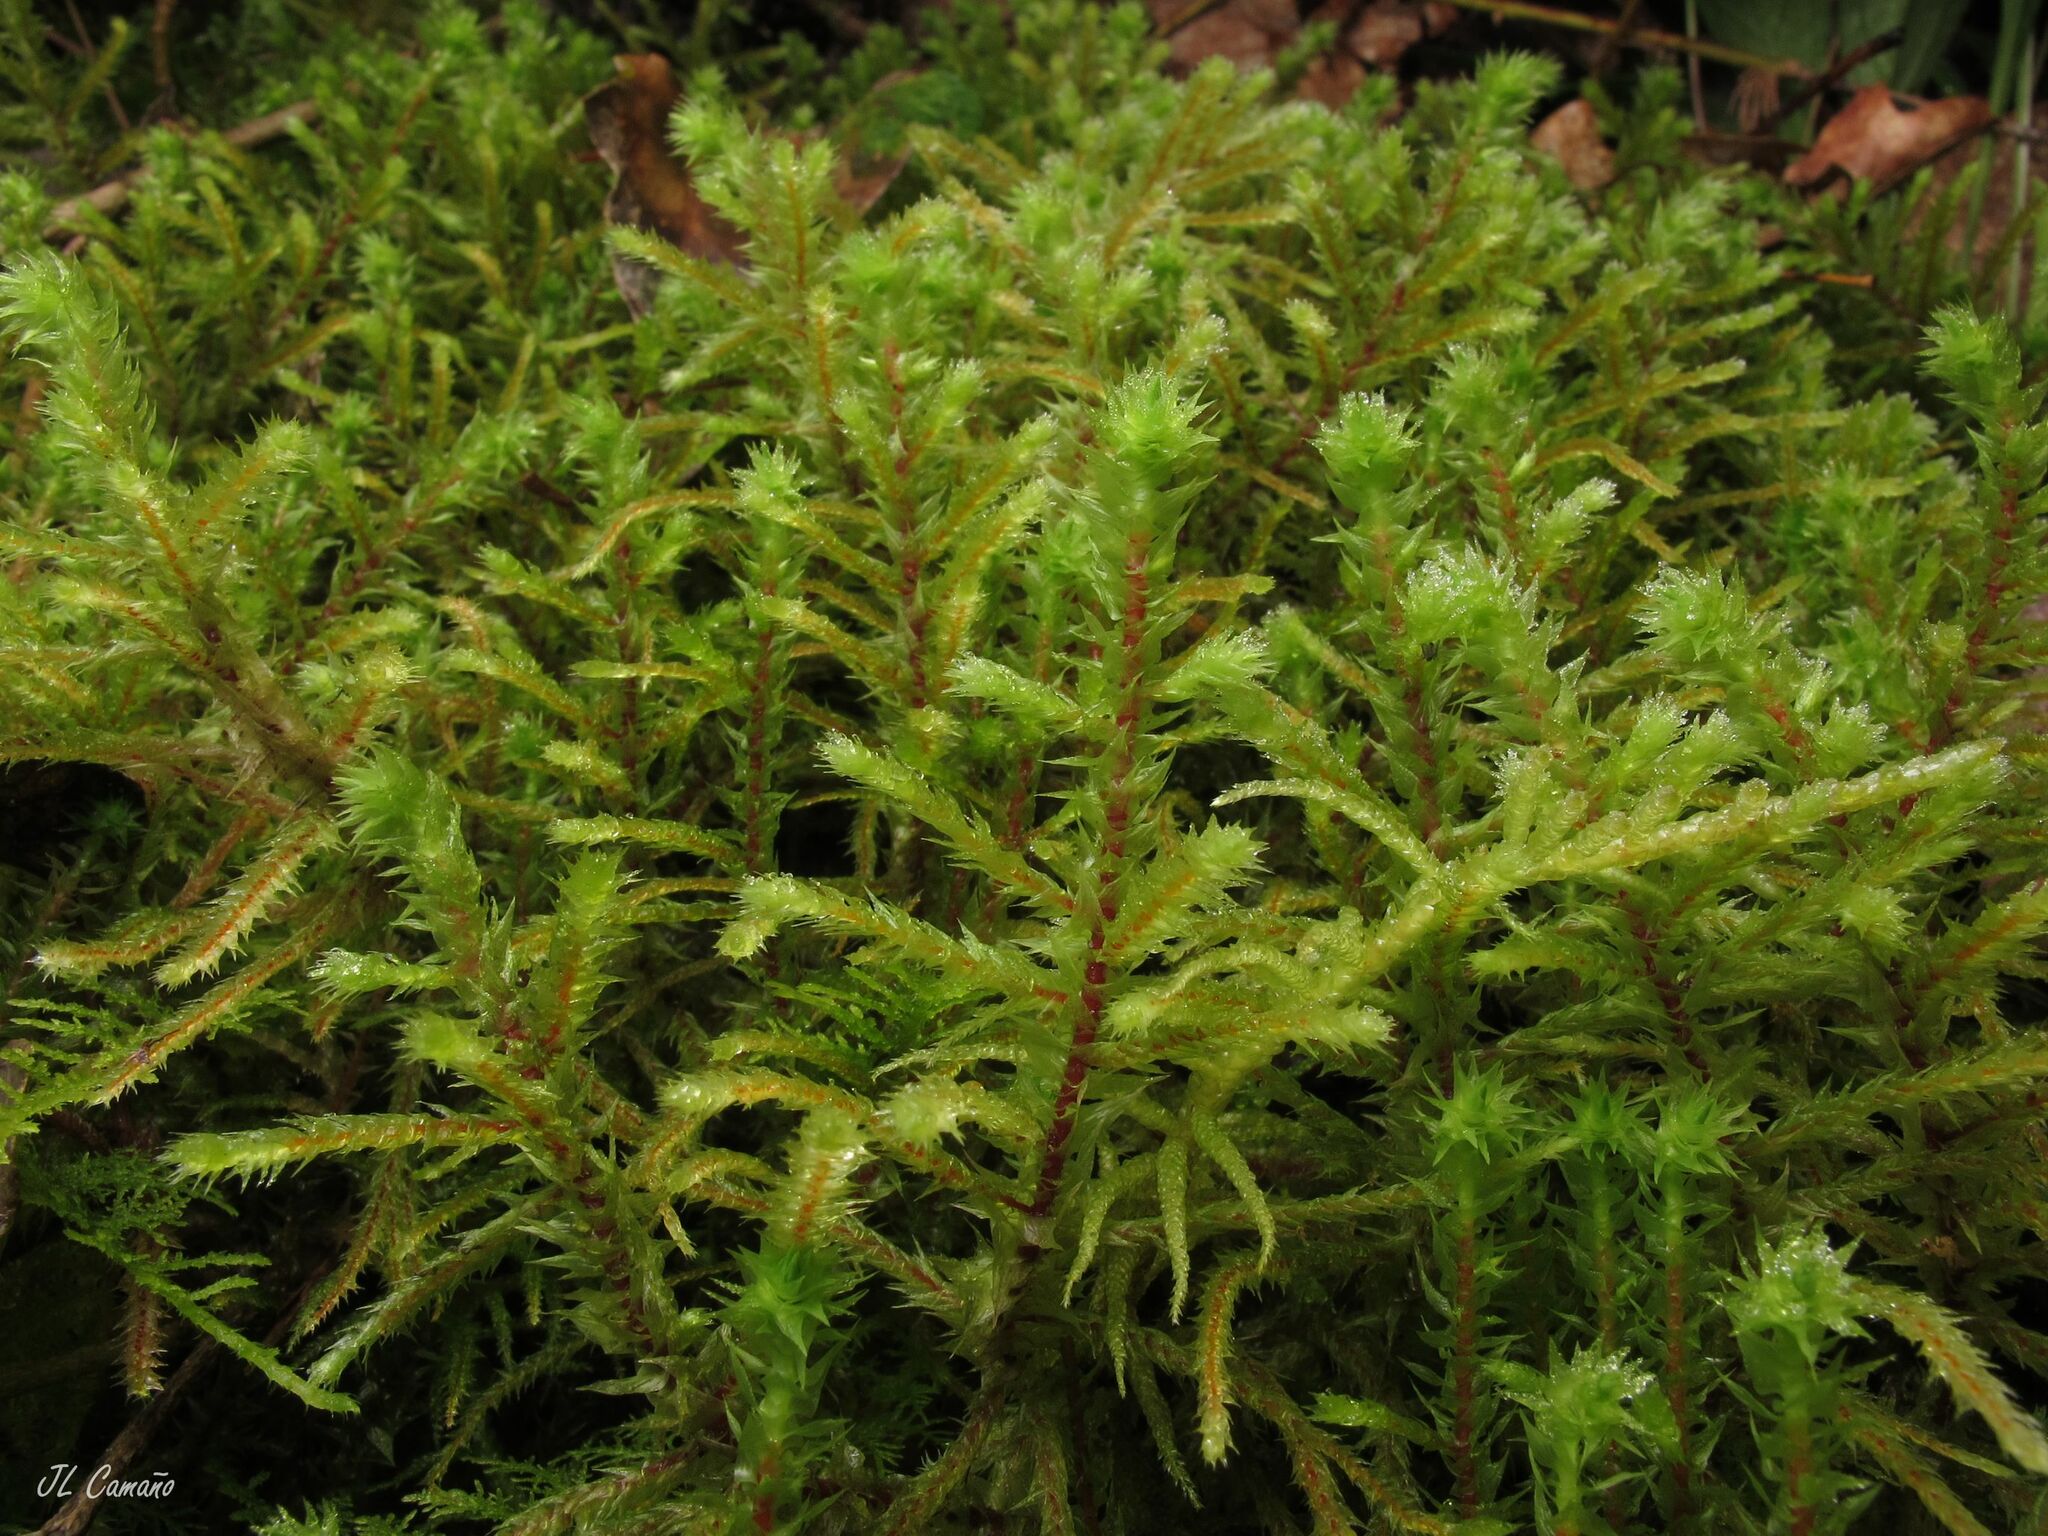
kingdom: Plantae
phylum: Bryophyta
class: Bryopsida
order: Hypnales
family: Hylocomiaceae
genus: Hylocomiadelphus
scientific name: Hylocomiadelphus triquetrus
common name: Rough goose neck moss
